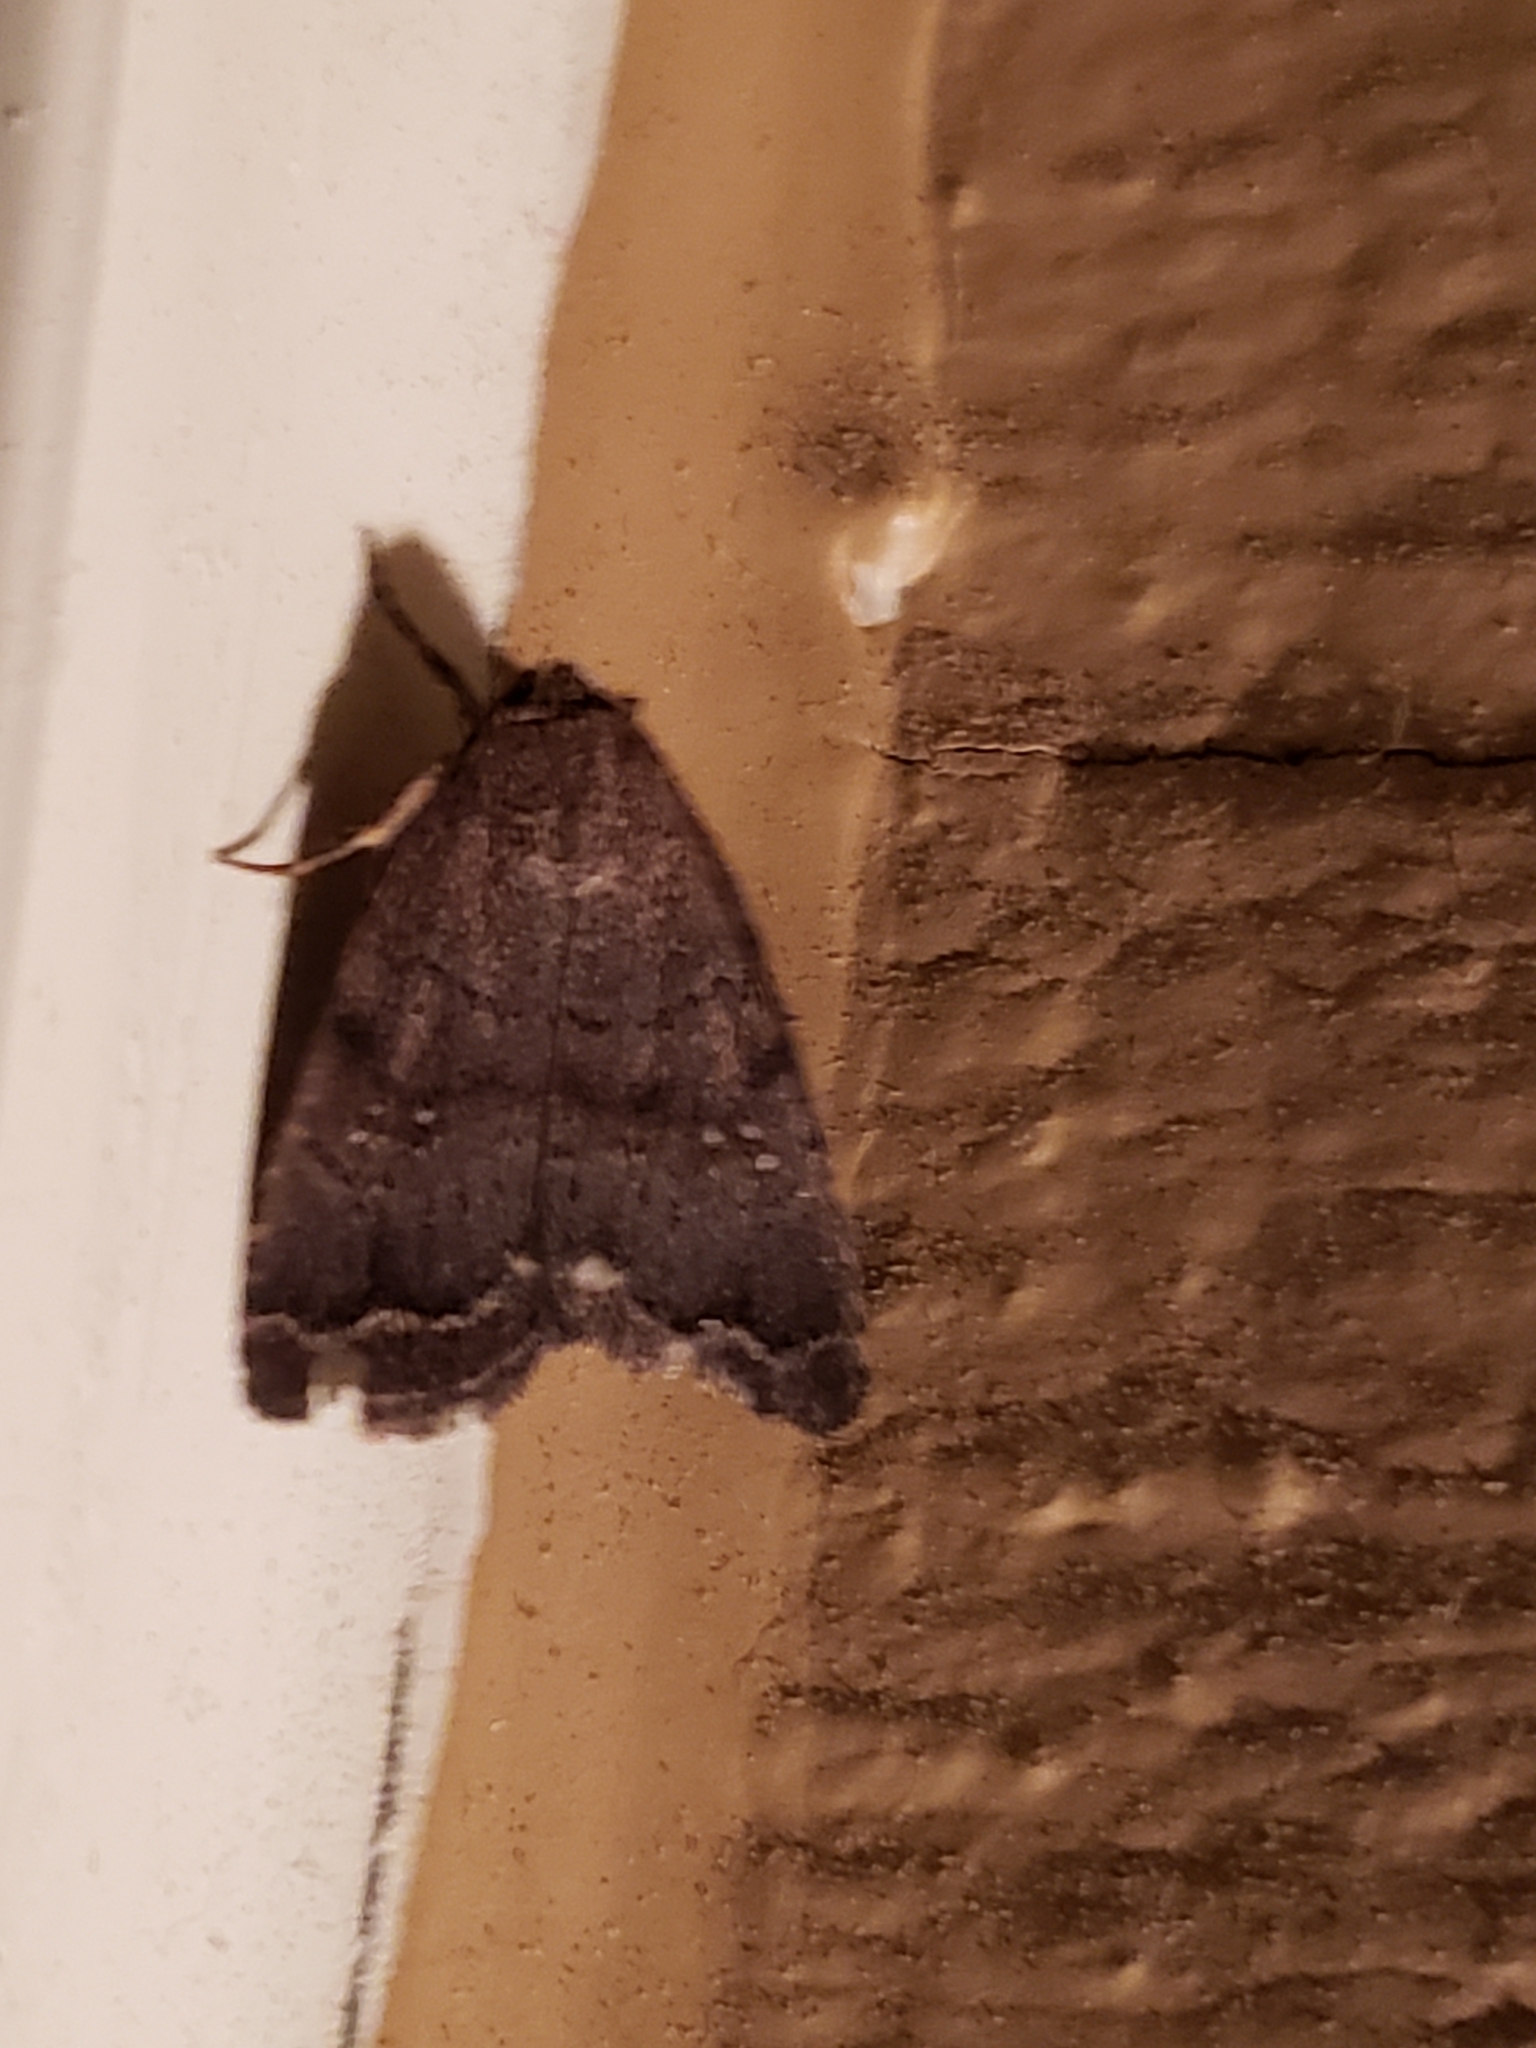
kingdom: Animalia
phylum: Arthropoda
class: Insecta
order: Lepidoptera
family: Noctuidae
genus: Athetis
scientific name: Athetis tarda
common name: Slowpoke moth
